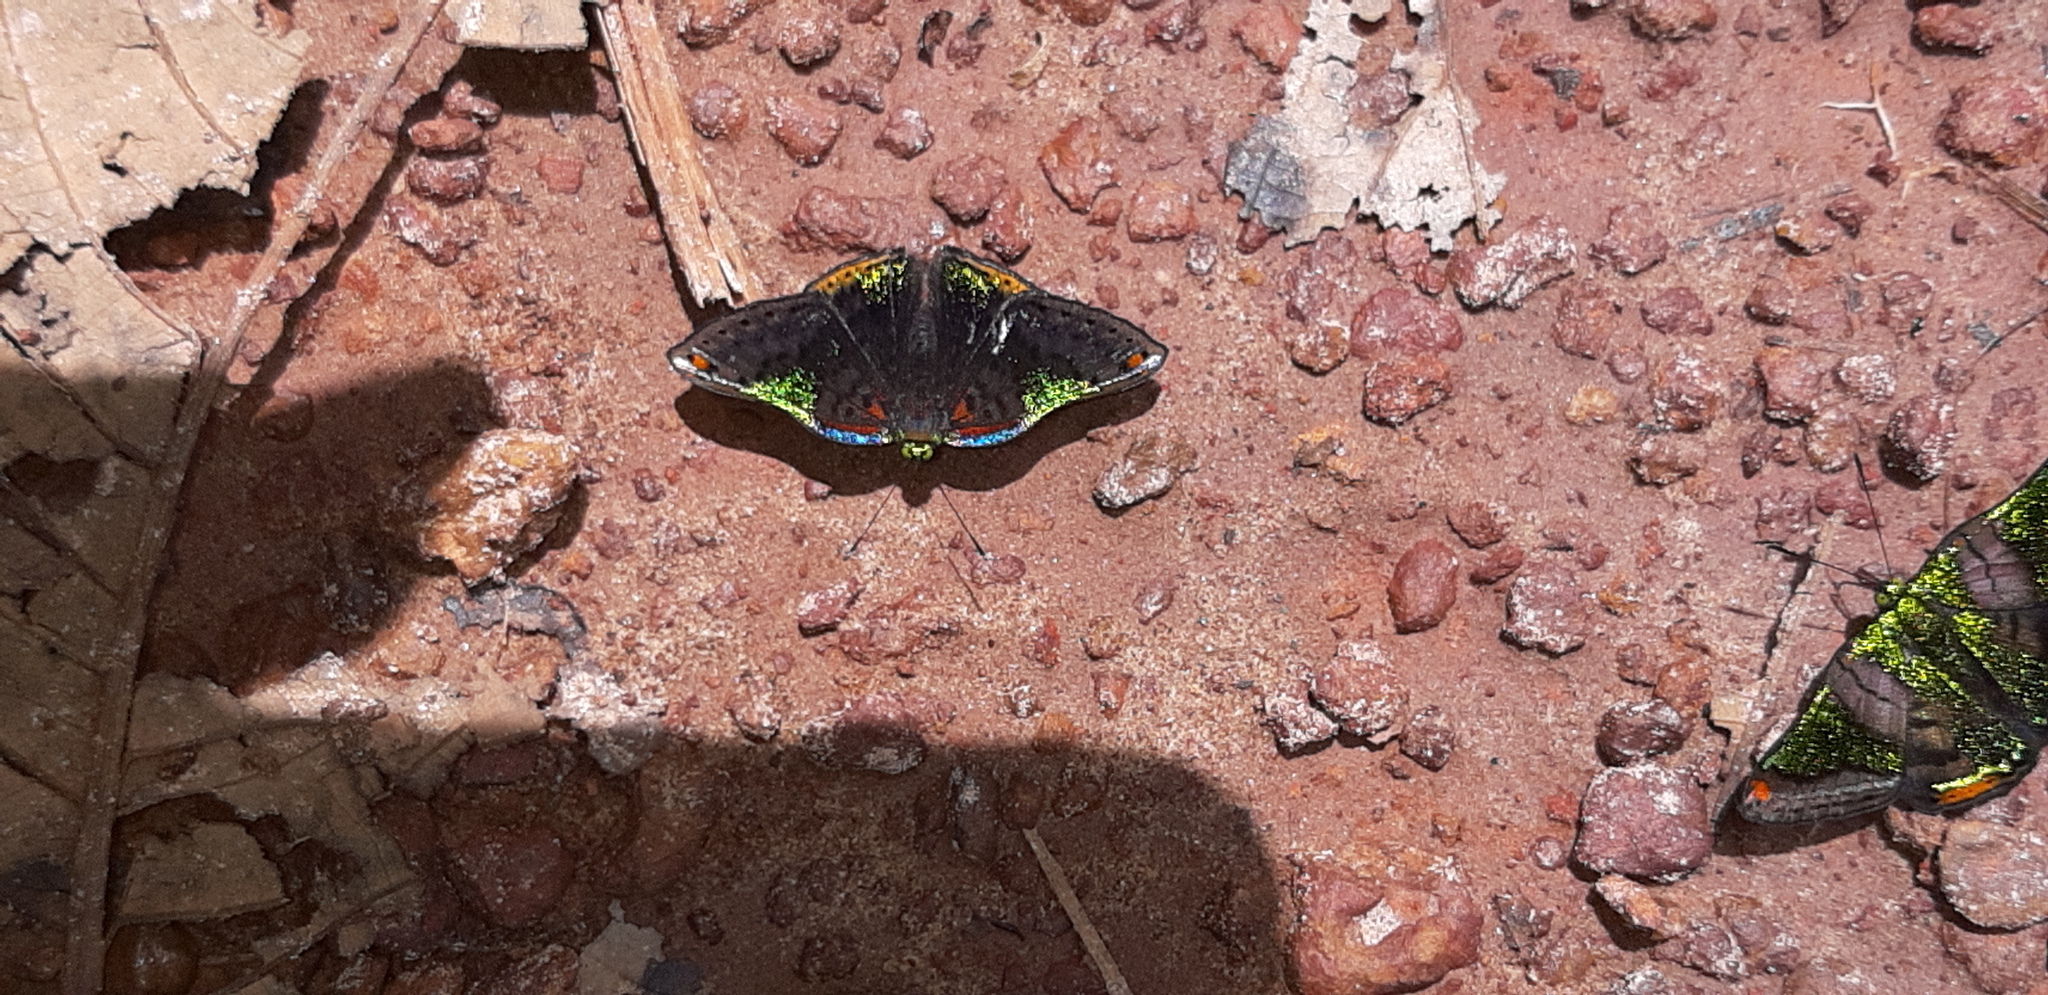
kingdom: Animalia
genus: Caria
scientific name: Caria trochilus
